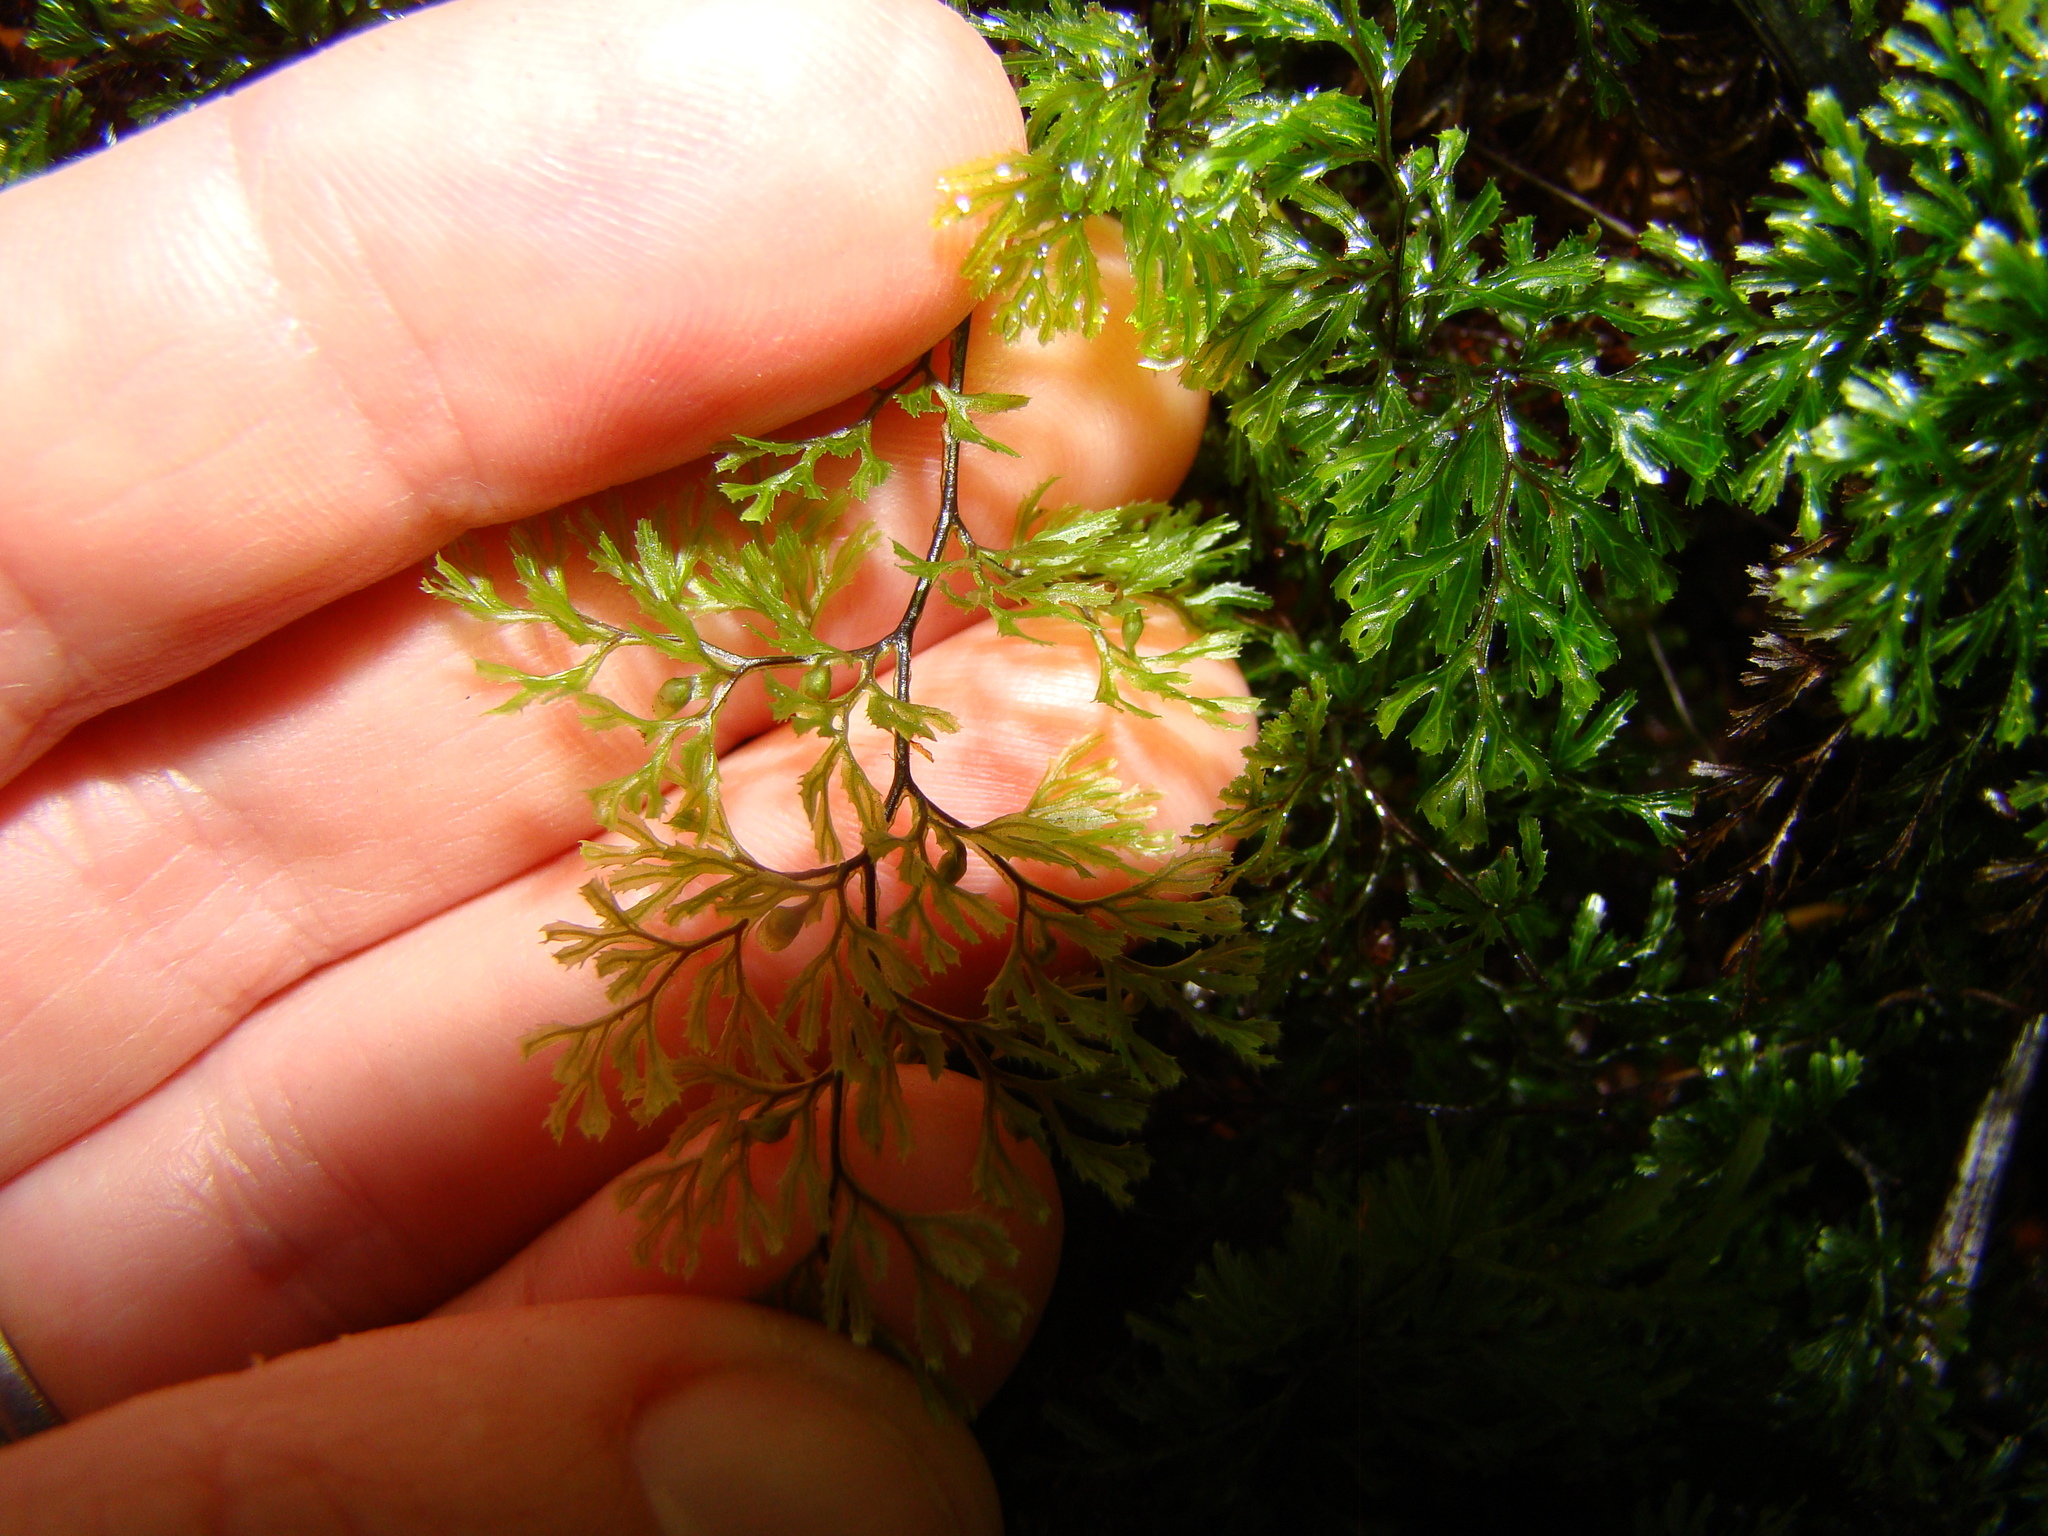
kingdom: Plantae
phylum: Tracheophyta
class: Polypodiopsida
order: Hymenophyllales
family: Hymenophyllaceae
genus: Hymenophyllum
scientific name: Hymenophyllum multifidum
